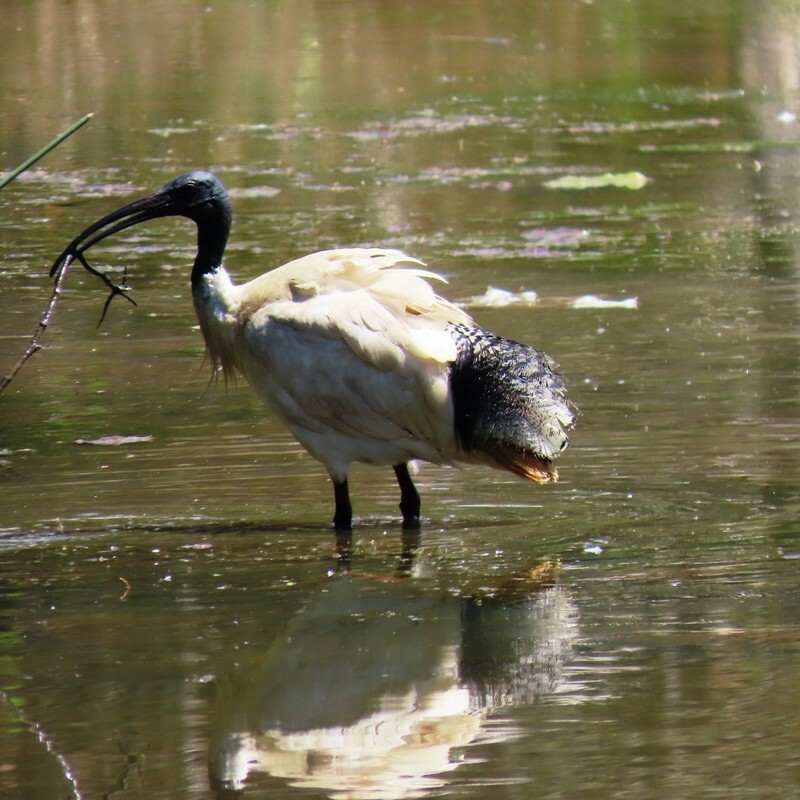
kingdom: Animalia
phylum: Chordata
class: Aves
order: Pelecaniformes
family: Threskiornithidae
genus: Threskiornis
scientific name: Threskiornis molucca
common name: Australian white ibis
